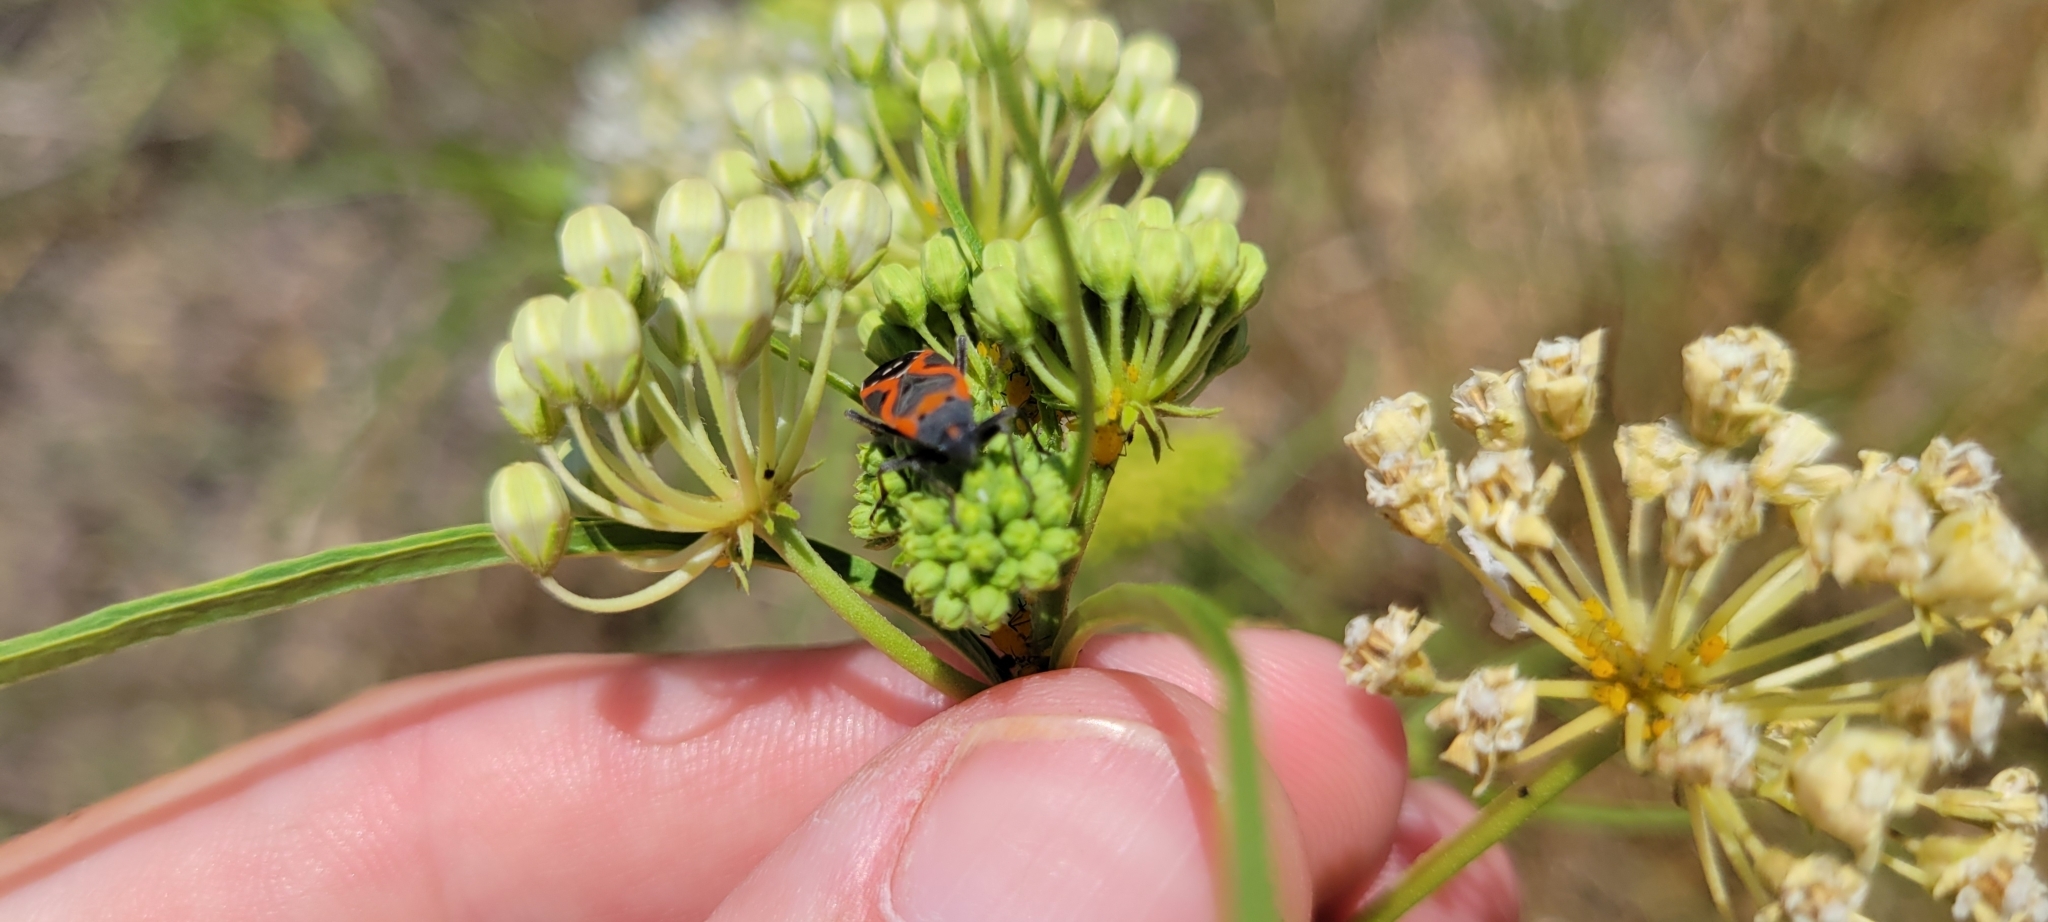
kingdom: Animalia
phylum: Arthropoda
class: Insecta
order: Hemiptera
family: Lygaeidae
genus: Lygaeus
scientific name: Lygaeus kalmii
